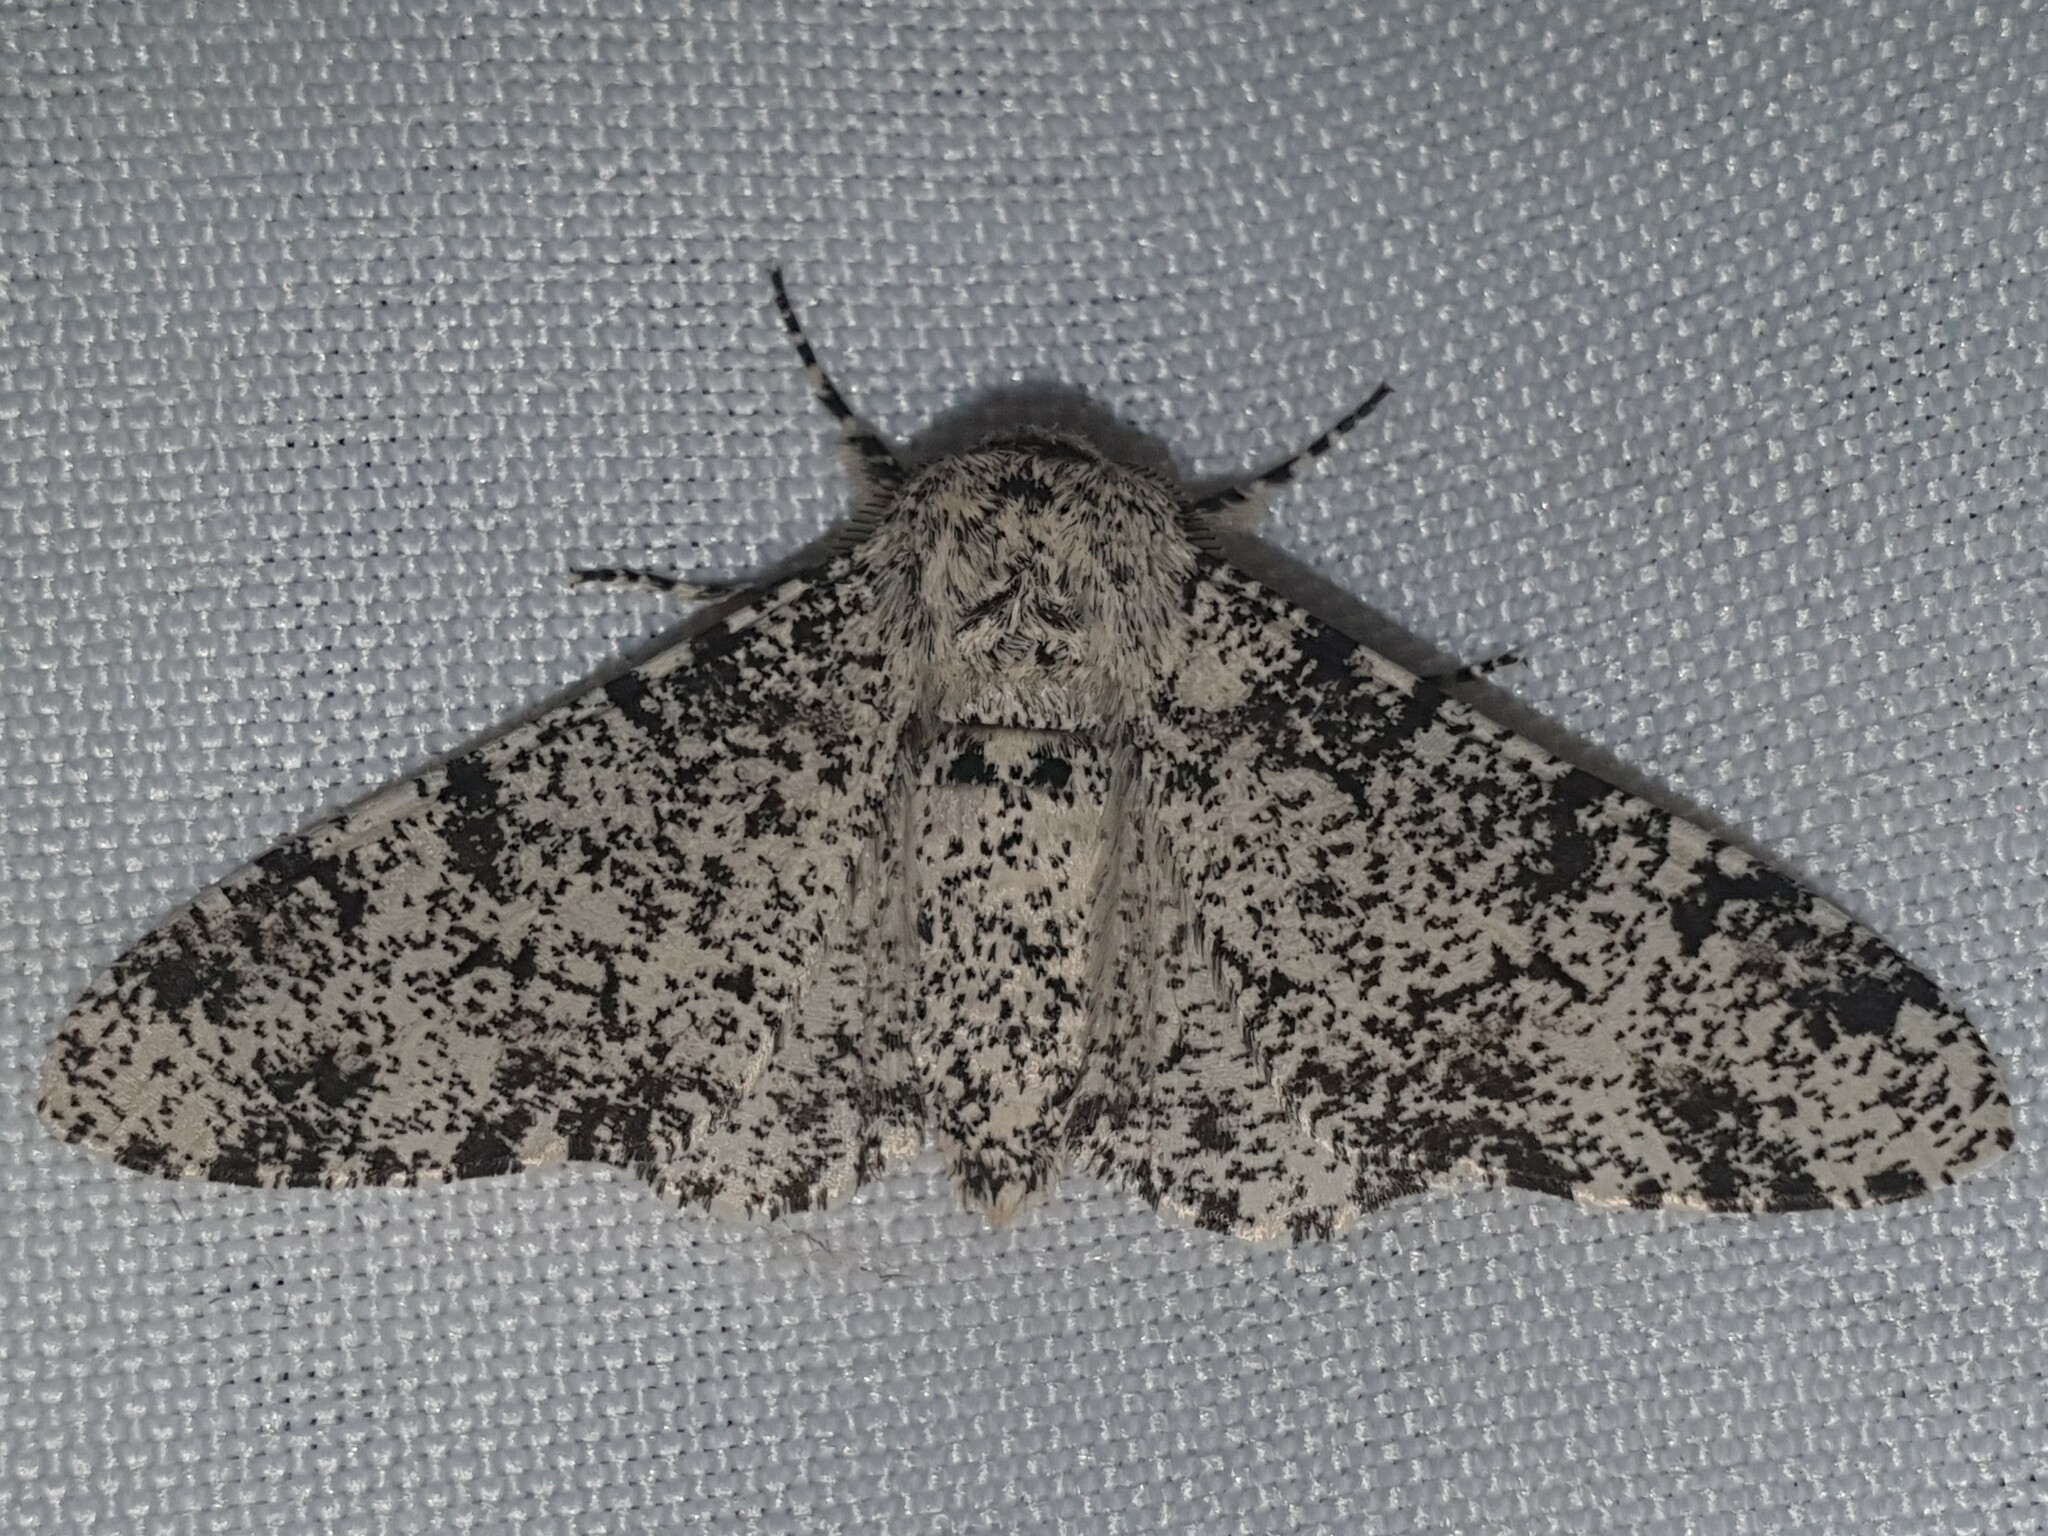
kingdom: Animalia
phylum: Arthropoda
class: Insecta
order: Lepidoptera
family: Geometridae
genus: Biston
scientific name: Biston betularia
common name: Peppered moth
